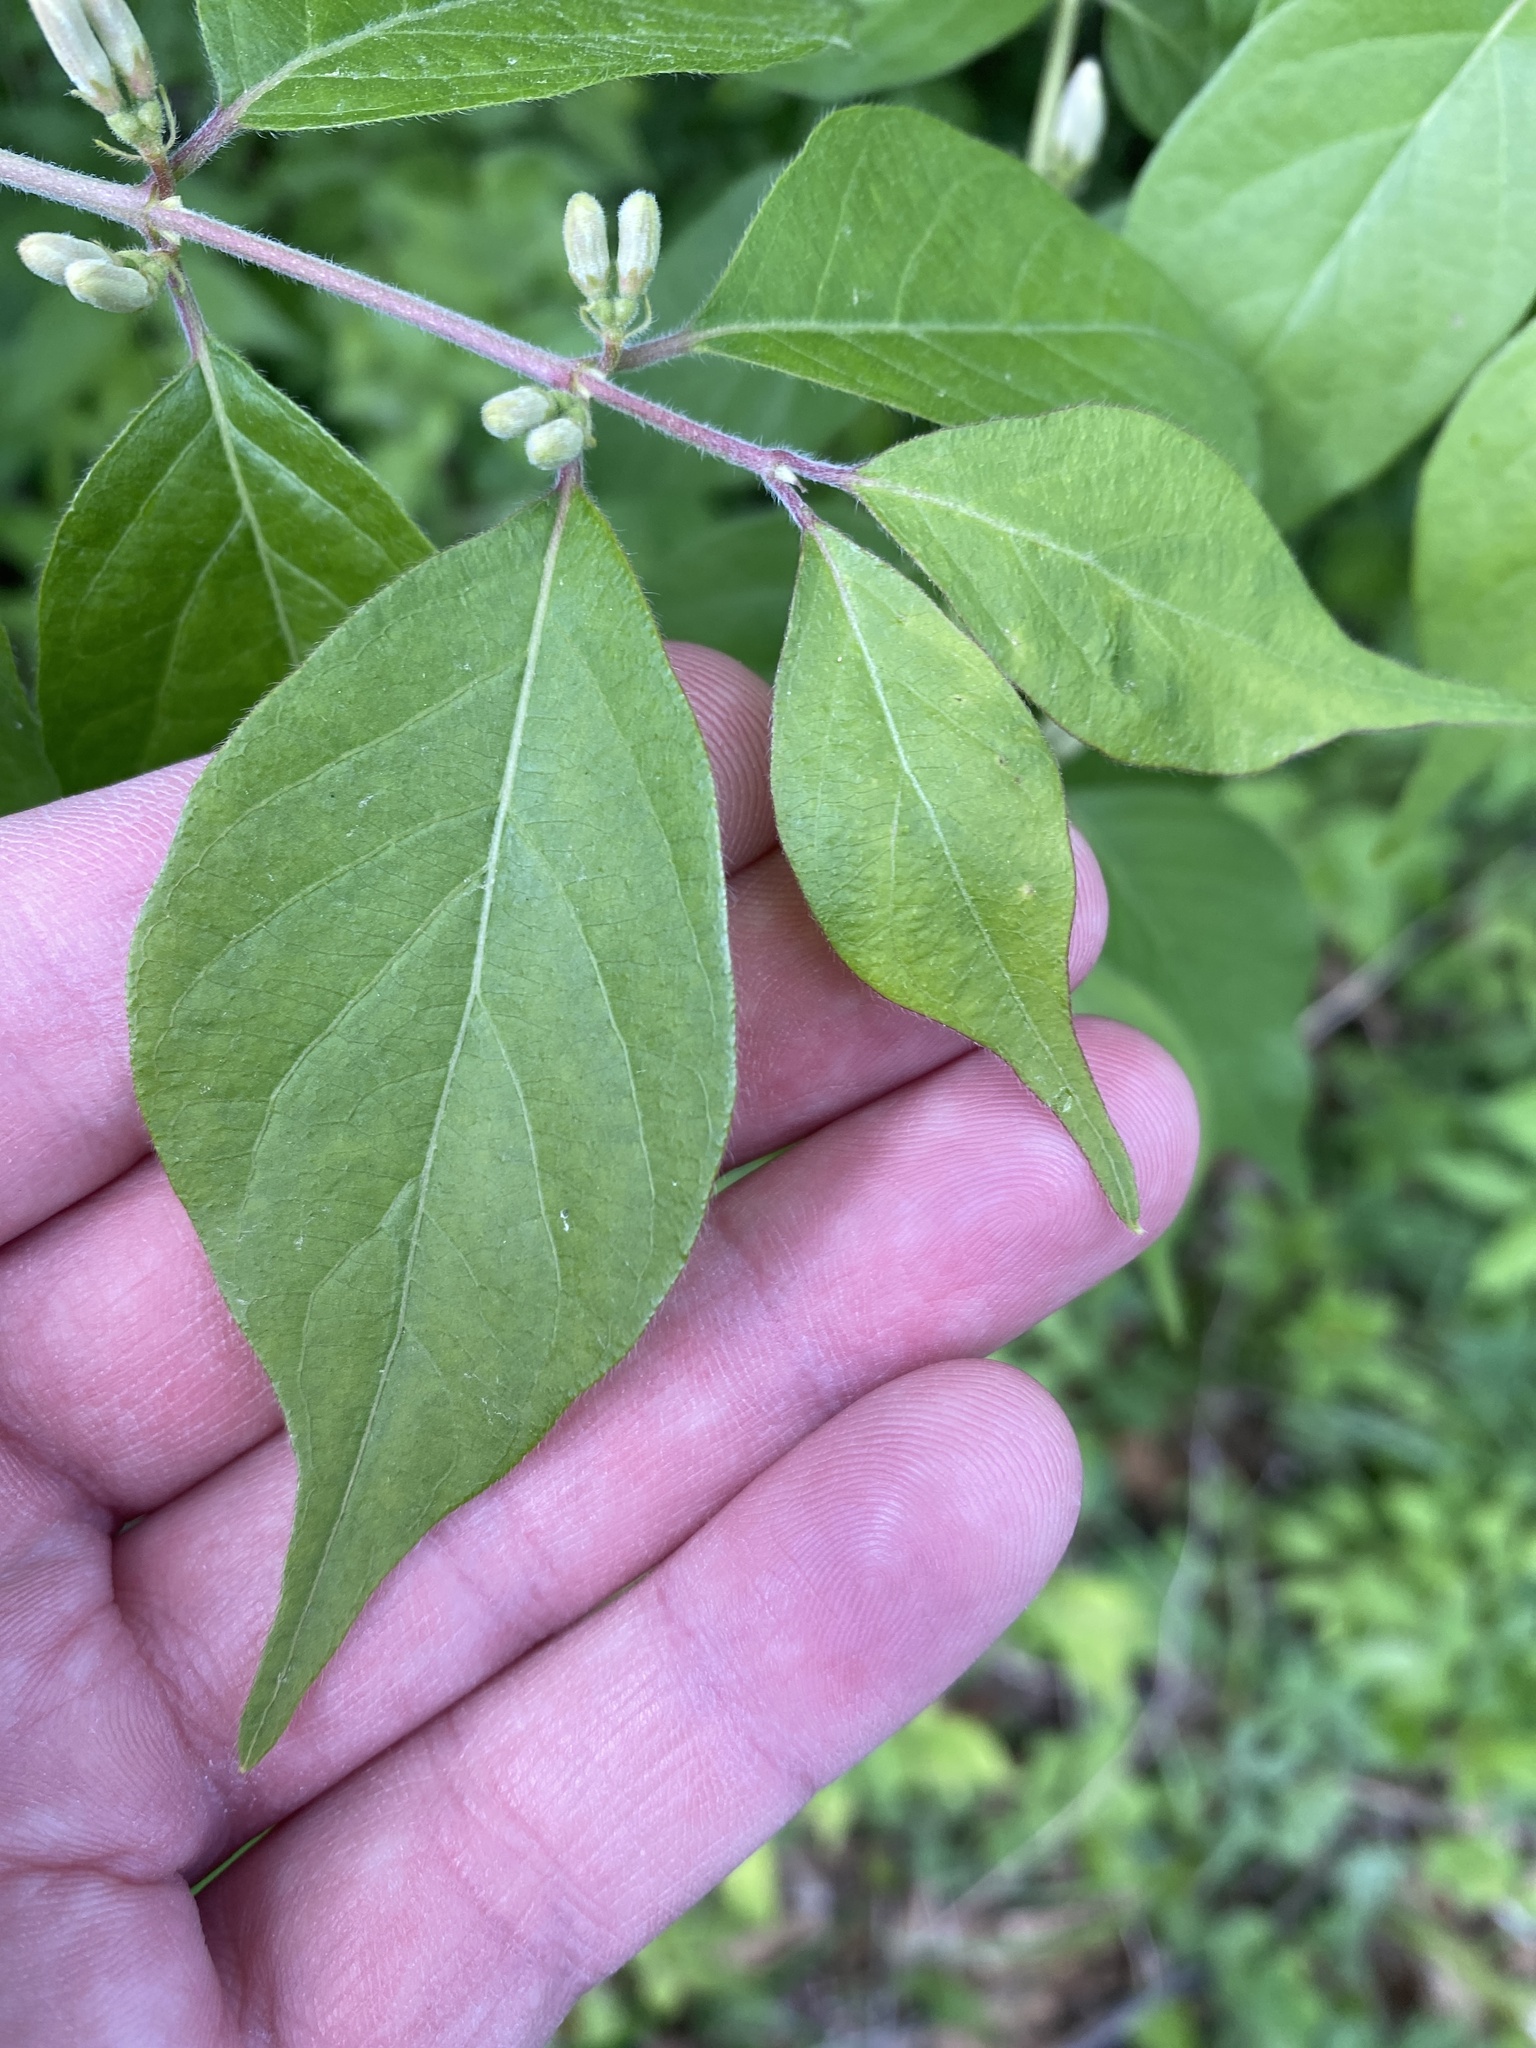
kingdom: Plantae
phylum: Tracheophyta
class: Magnoliopsida
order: Dipsacales
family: Caprifoliaceae
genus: Lonicera
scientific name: Lonicera maackii
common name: Amur honeysuckle
